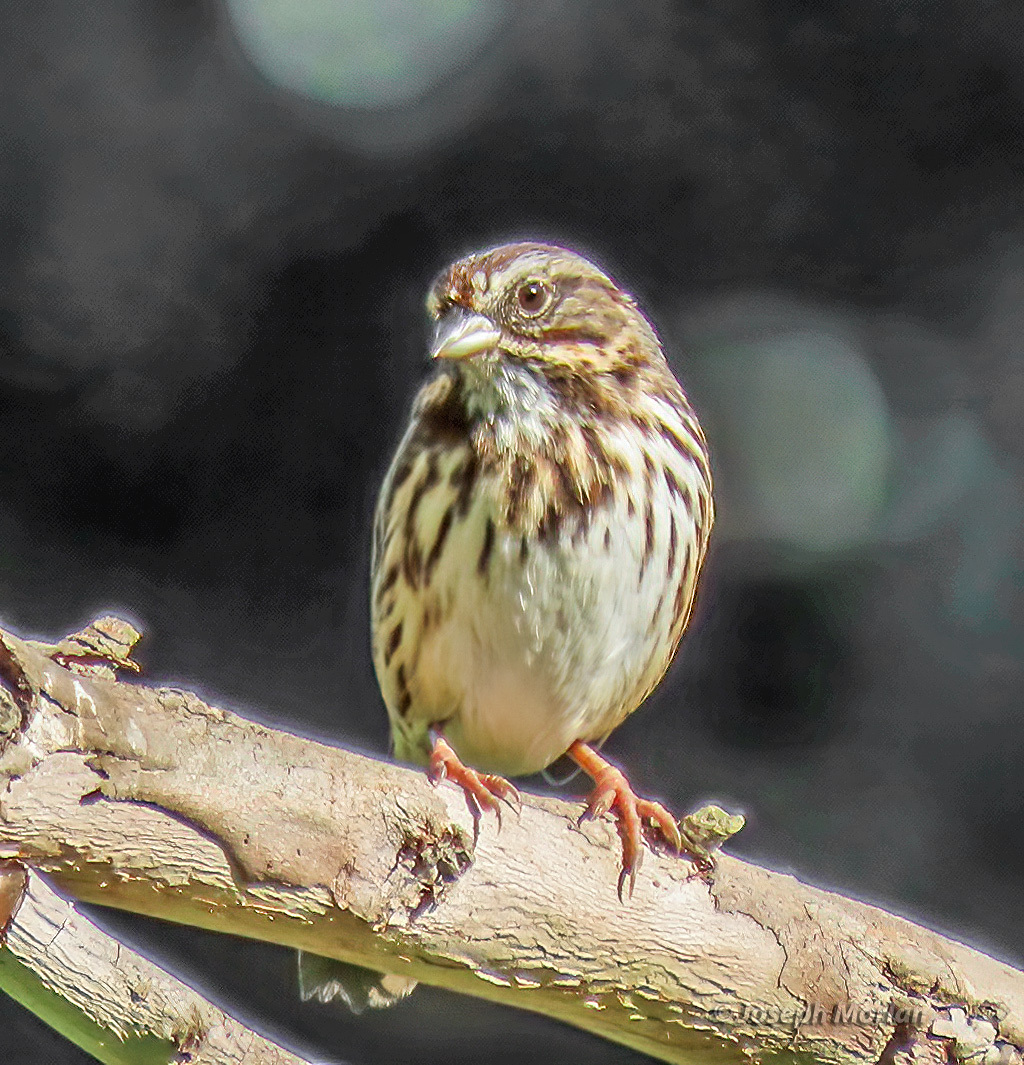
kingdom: Animalia
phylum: Chordata
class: Aves
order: Passeriformes
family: Passerellidae
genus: Melospiza
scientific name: Melospiza melodia
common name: Song sparrow
